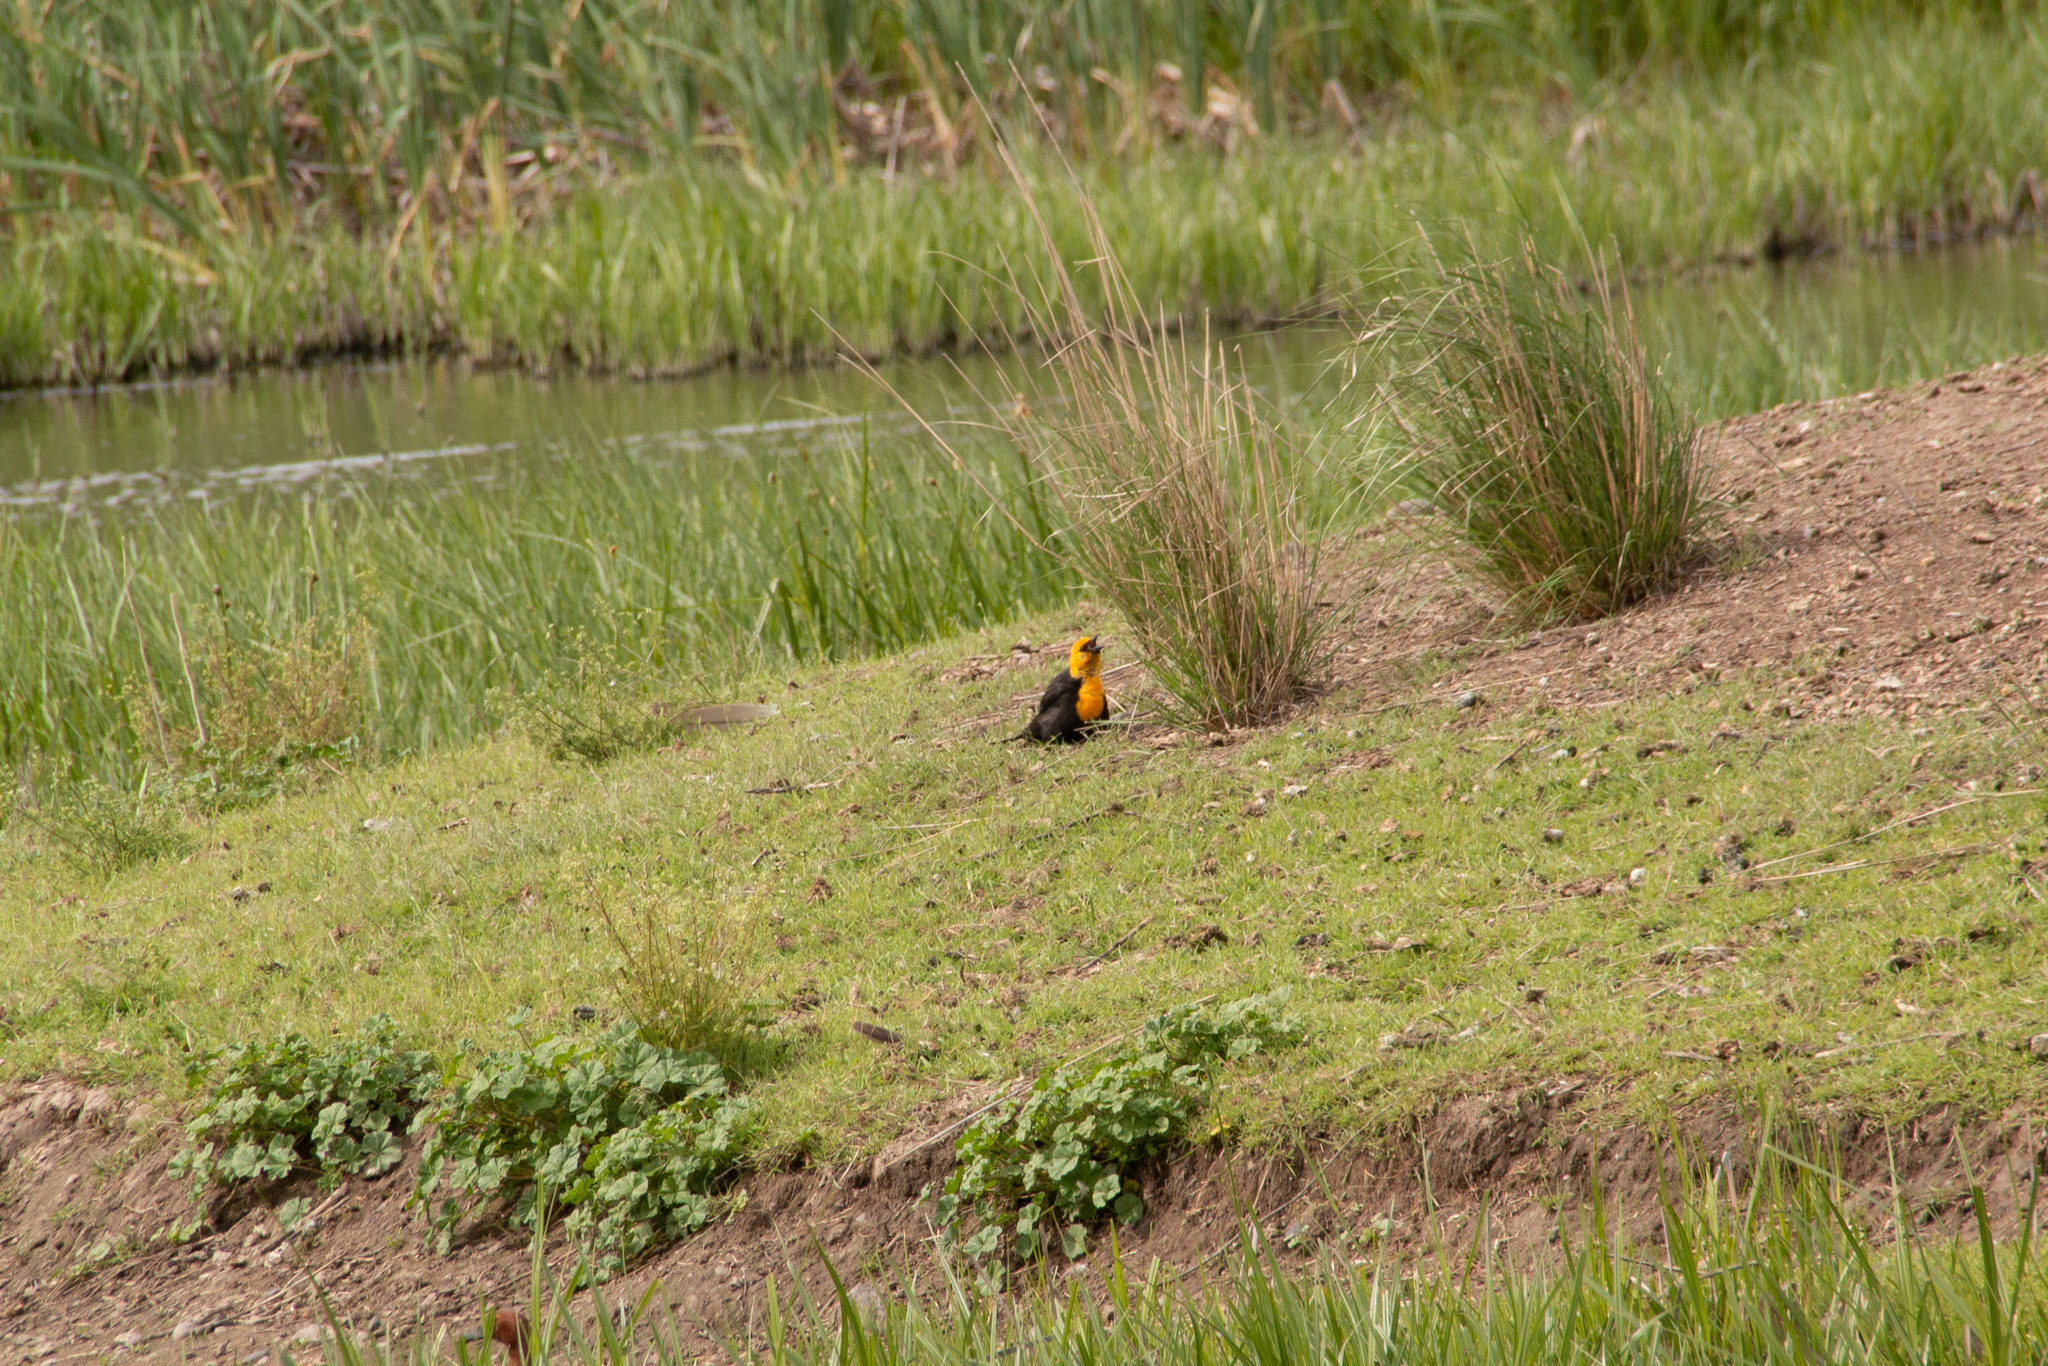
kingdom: Animalia
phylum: Chordata
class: Aves
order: Passeriformes
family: Icteridae
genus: Xanthocephalus
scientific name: Xanthocephalus xanthocephalus
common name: Yellow-headed blackbird
